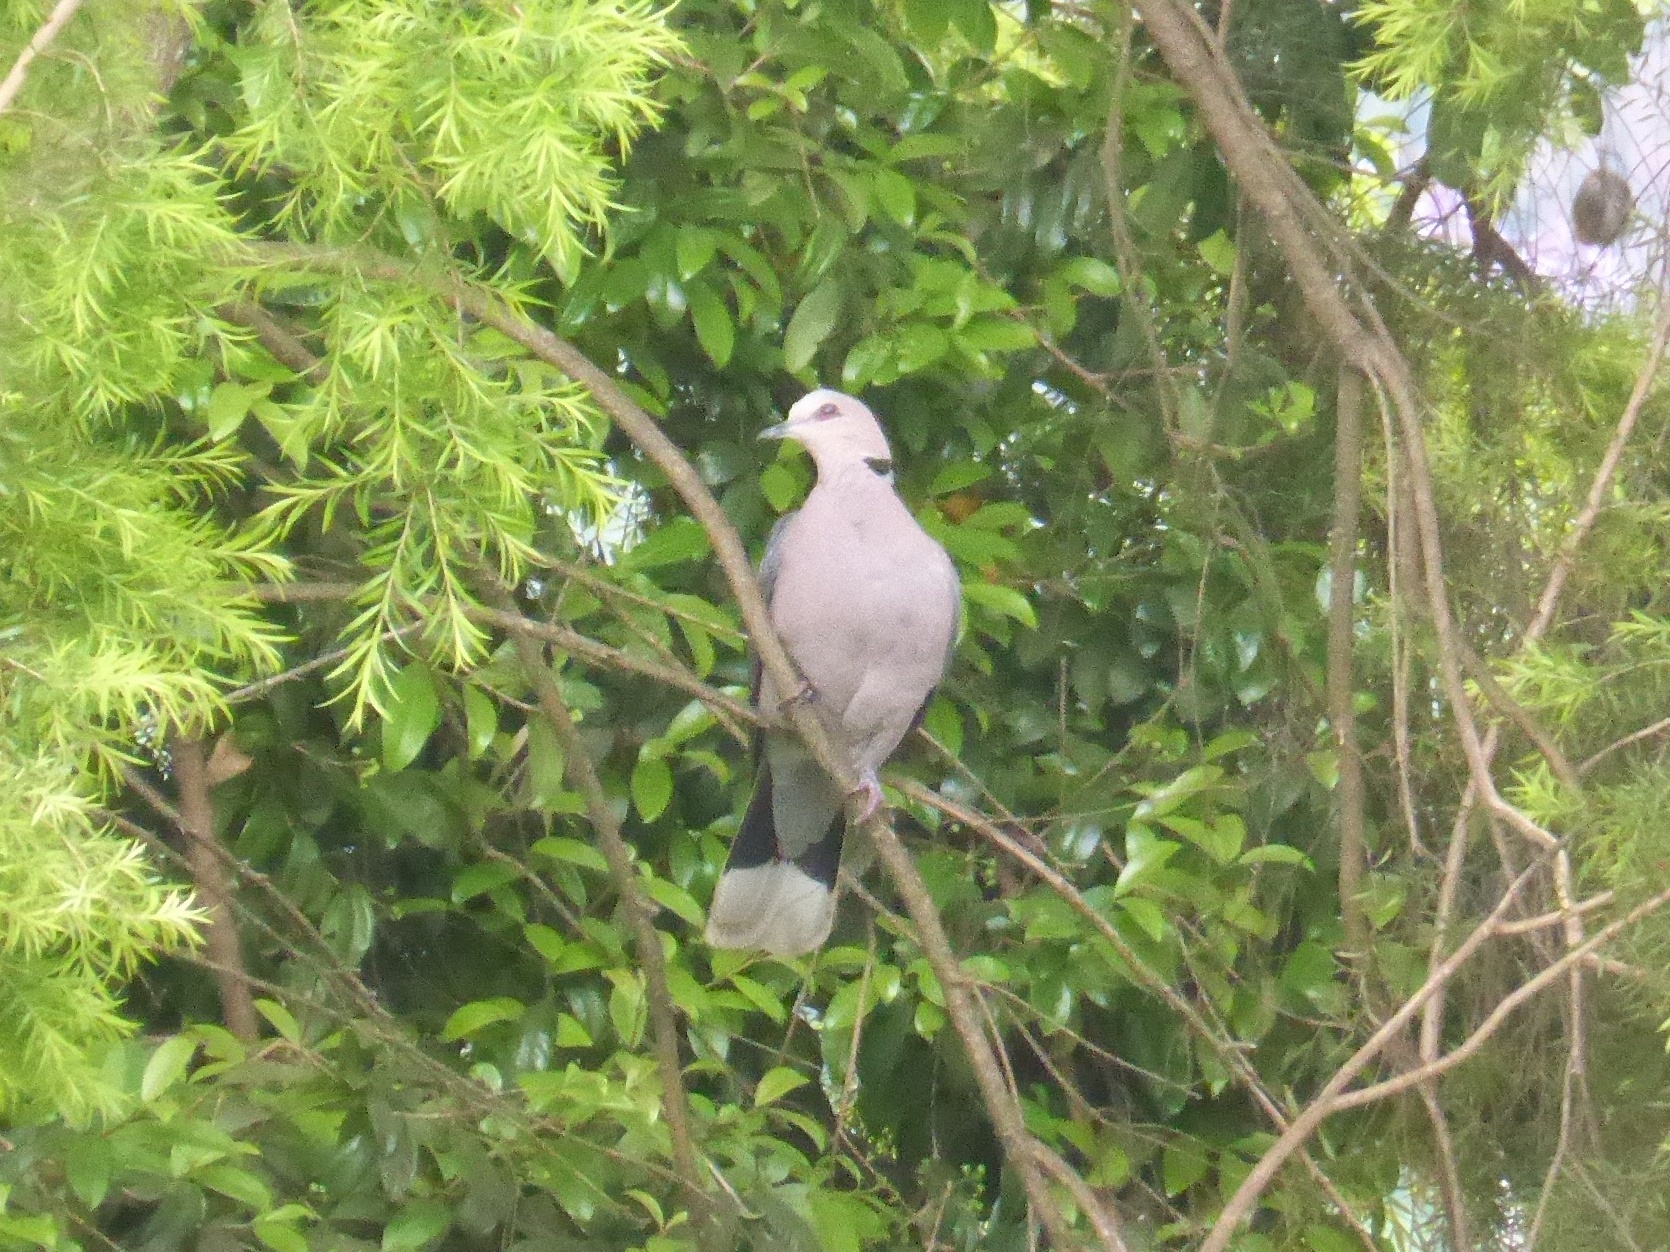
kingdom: Animalia
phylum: Chordata
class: Aves
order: Columbiformes
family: Columbidae
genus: Streptopelia
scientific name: Streptopelia semitorquata
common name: Red-eyed dove
